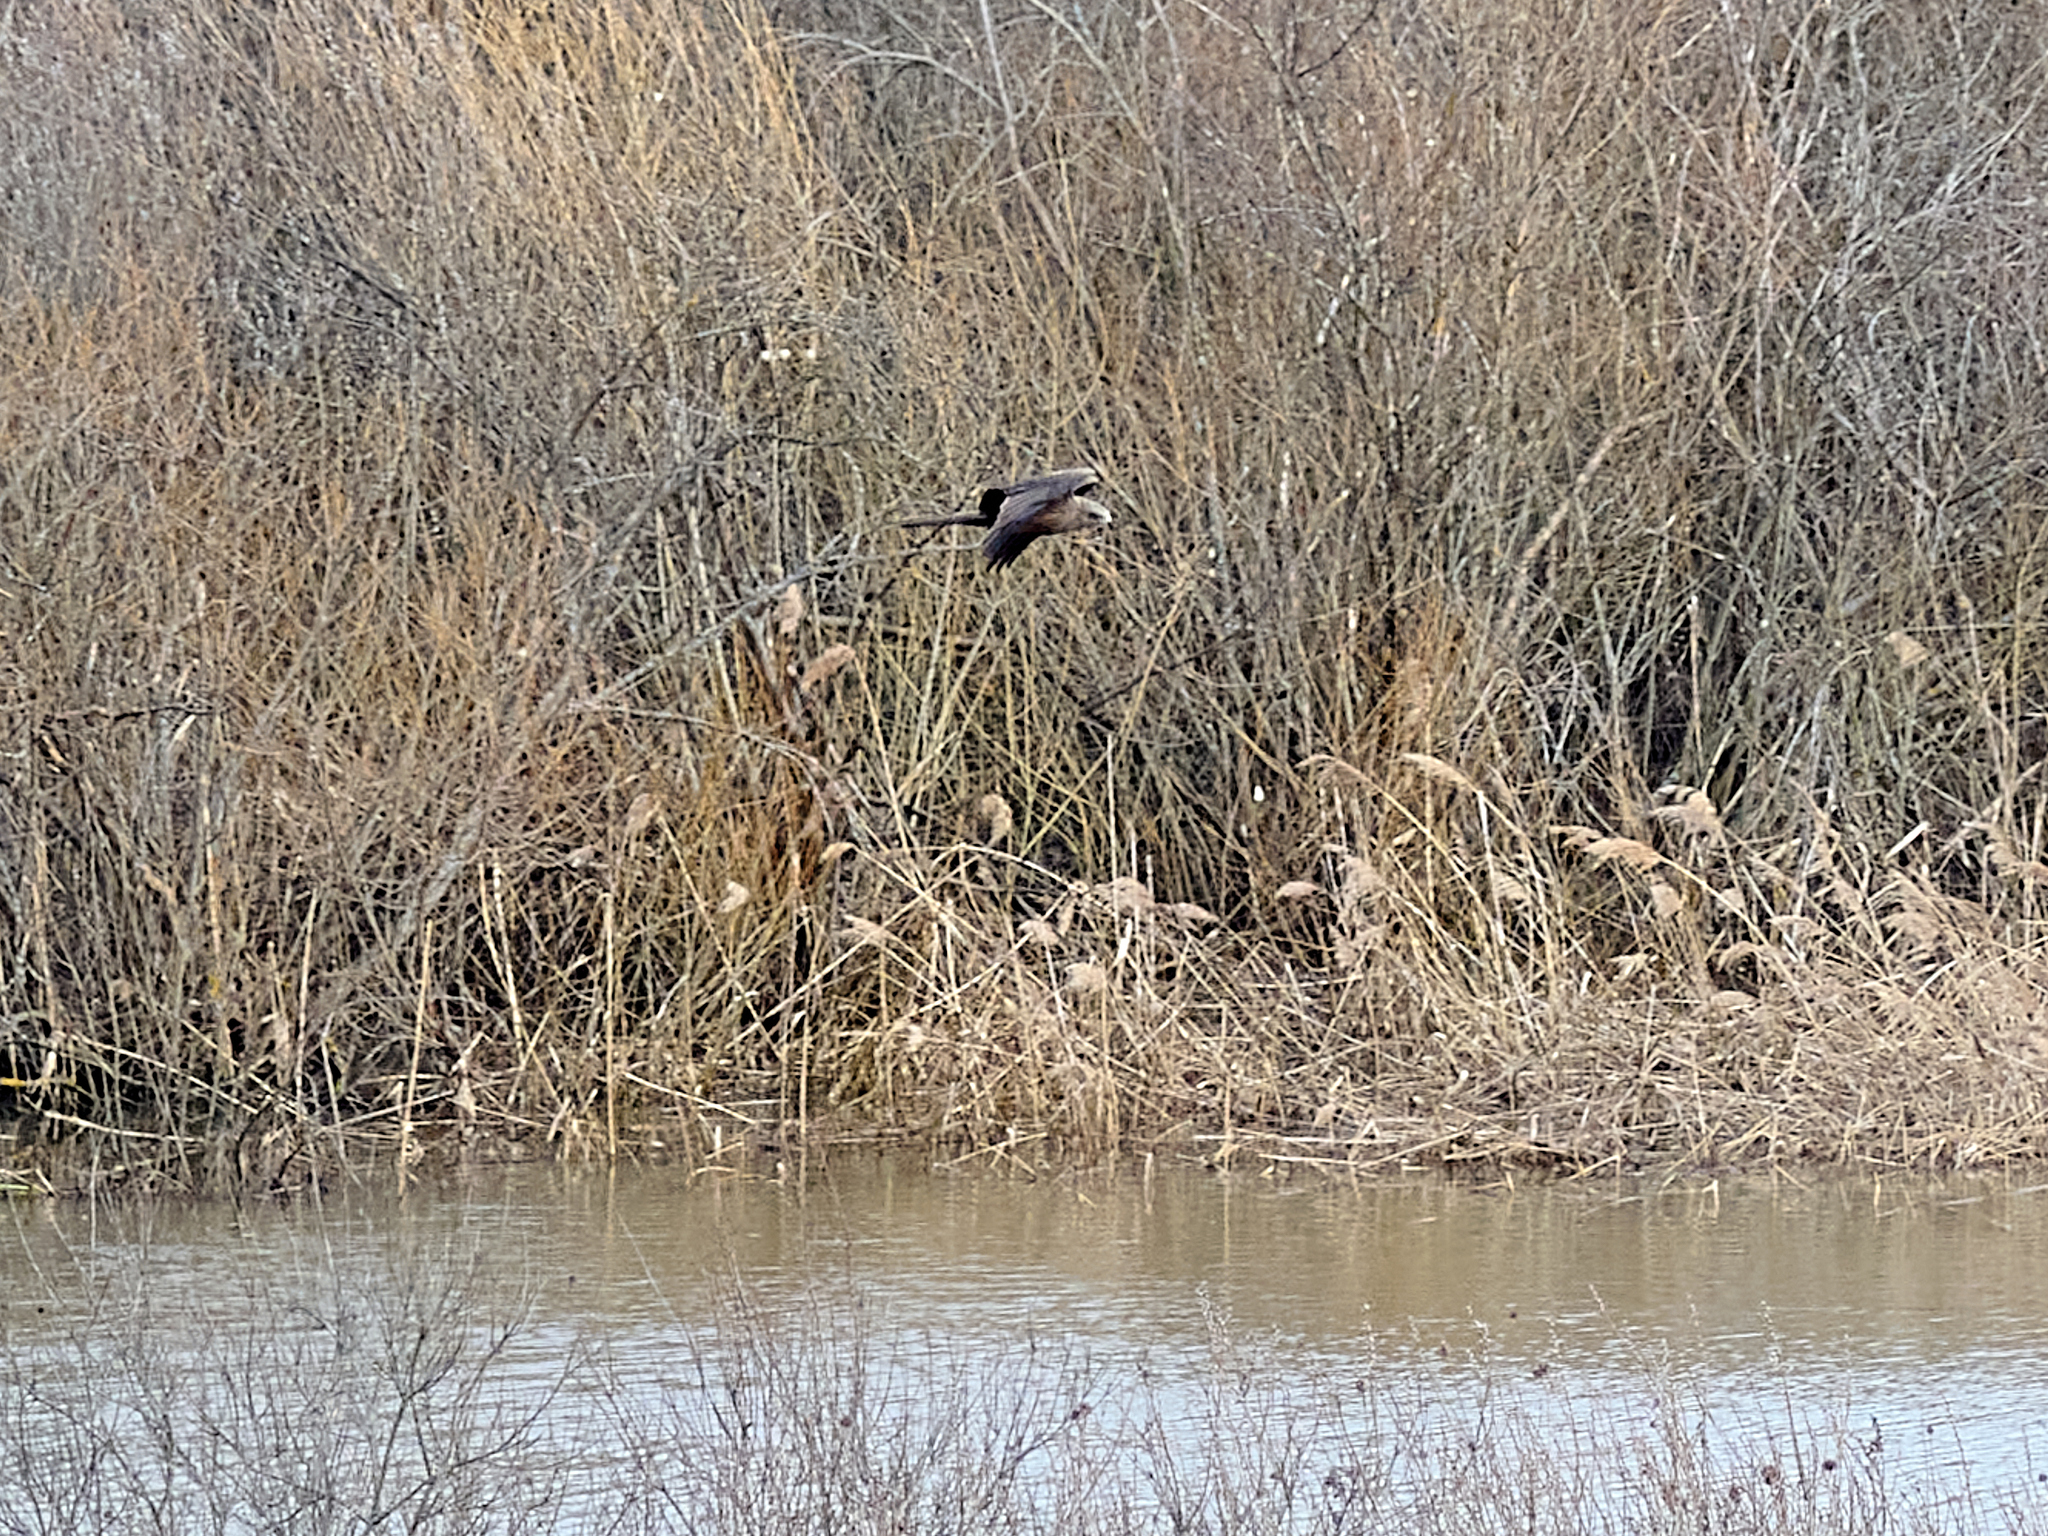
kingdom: Animalia
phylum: Chordata
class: Aves
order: Accipitriformes
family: Accipitridae
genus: Milvus
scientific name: Milvus migrans
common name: Black kite
